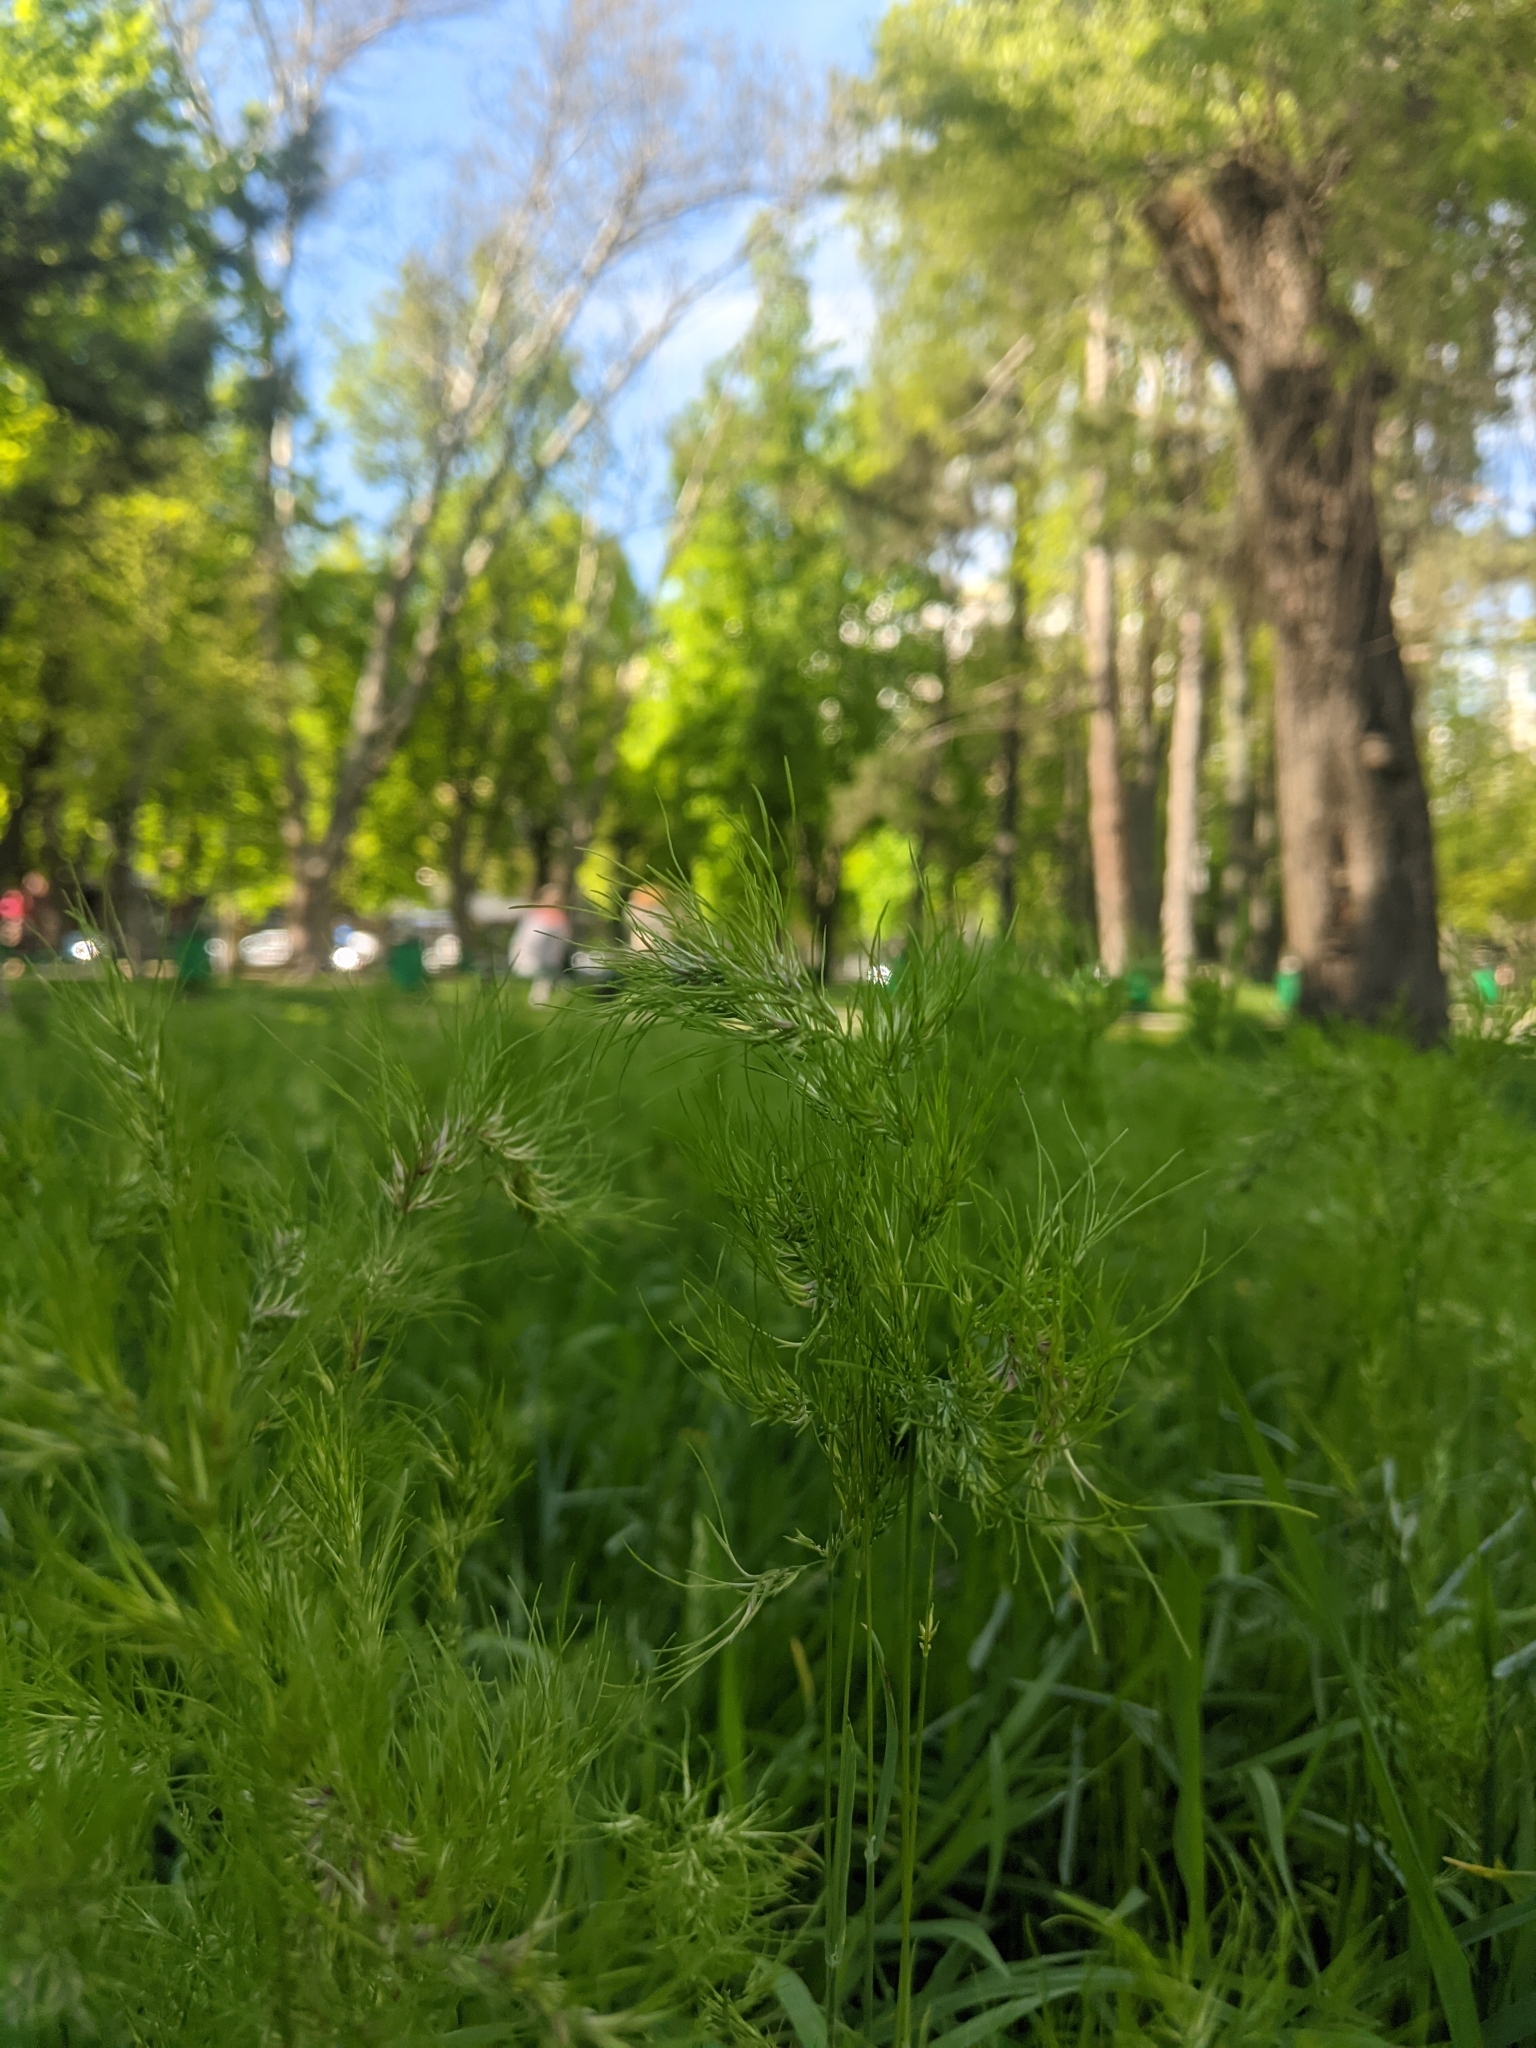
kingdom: Plantae
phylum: Tracheophyta
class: Liliopsida
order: Poales
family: Poaceae
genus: Poa
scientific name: Poa bulbosa
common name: Bulbous bluegrass
